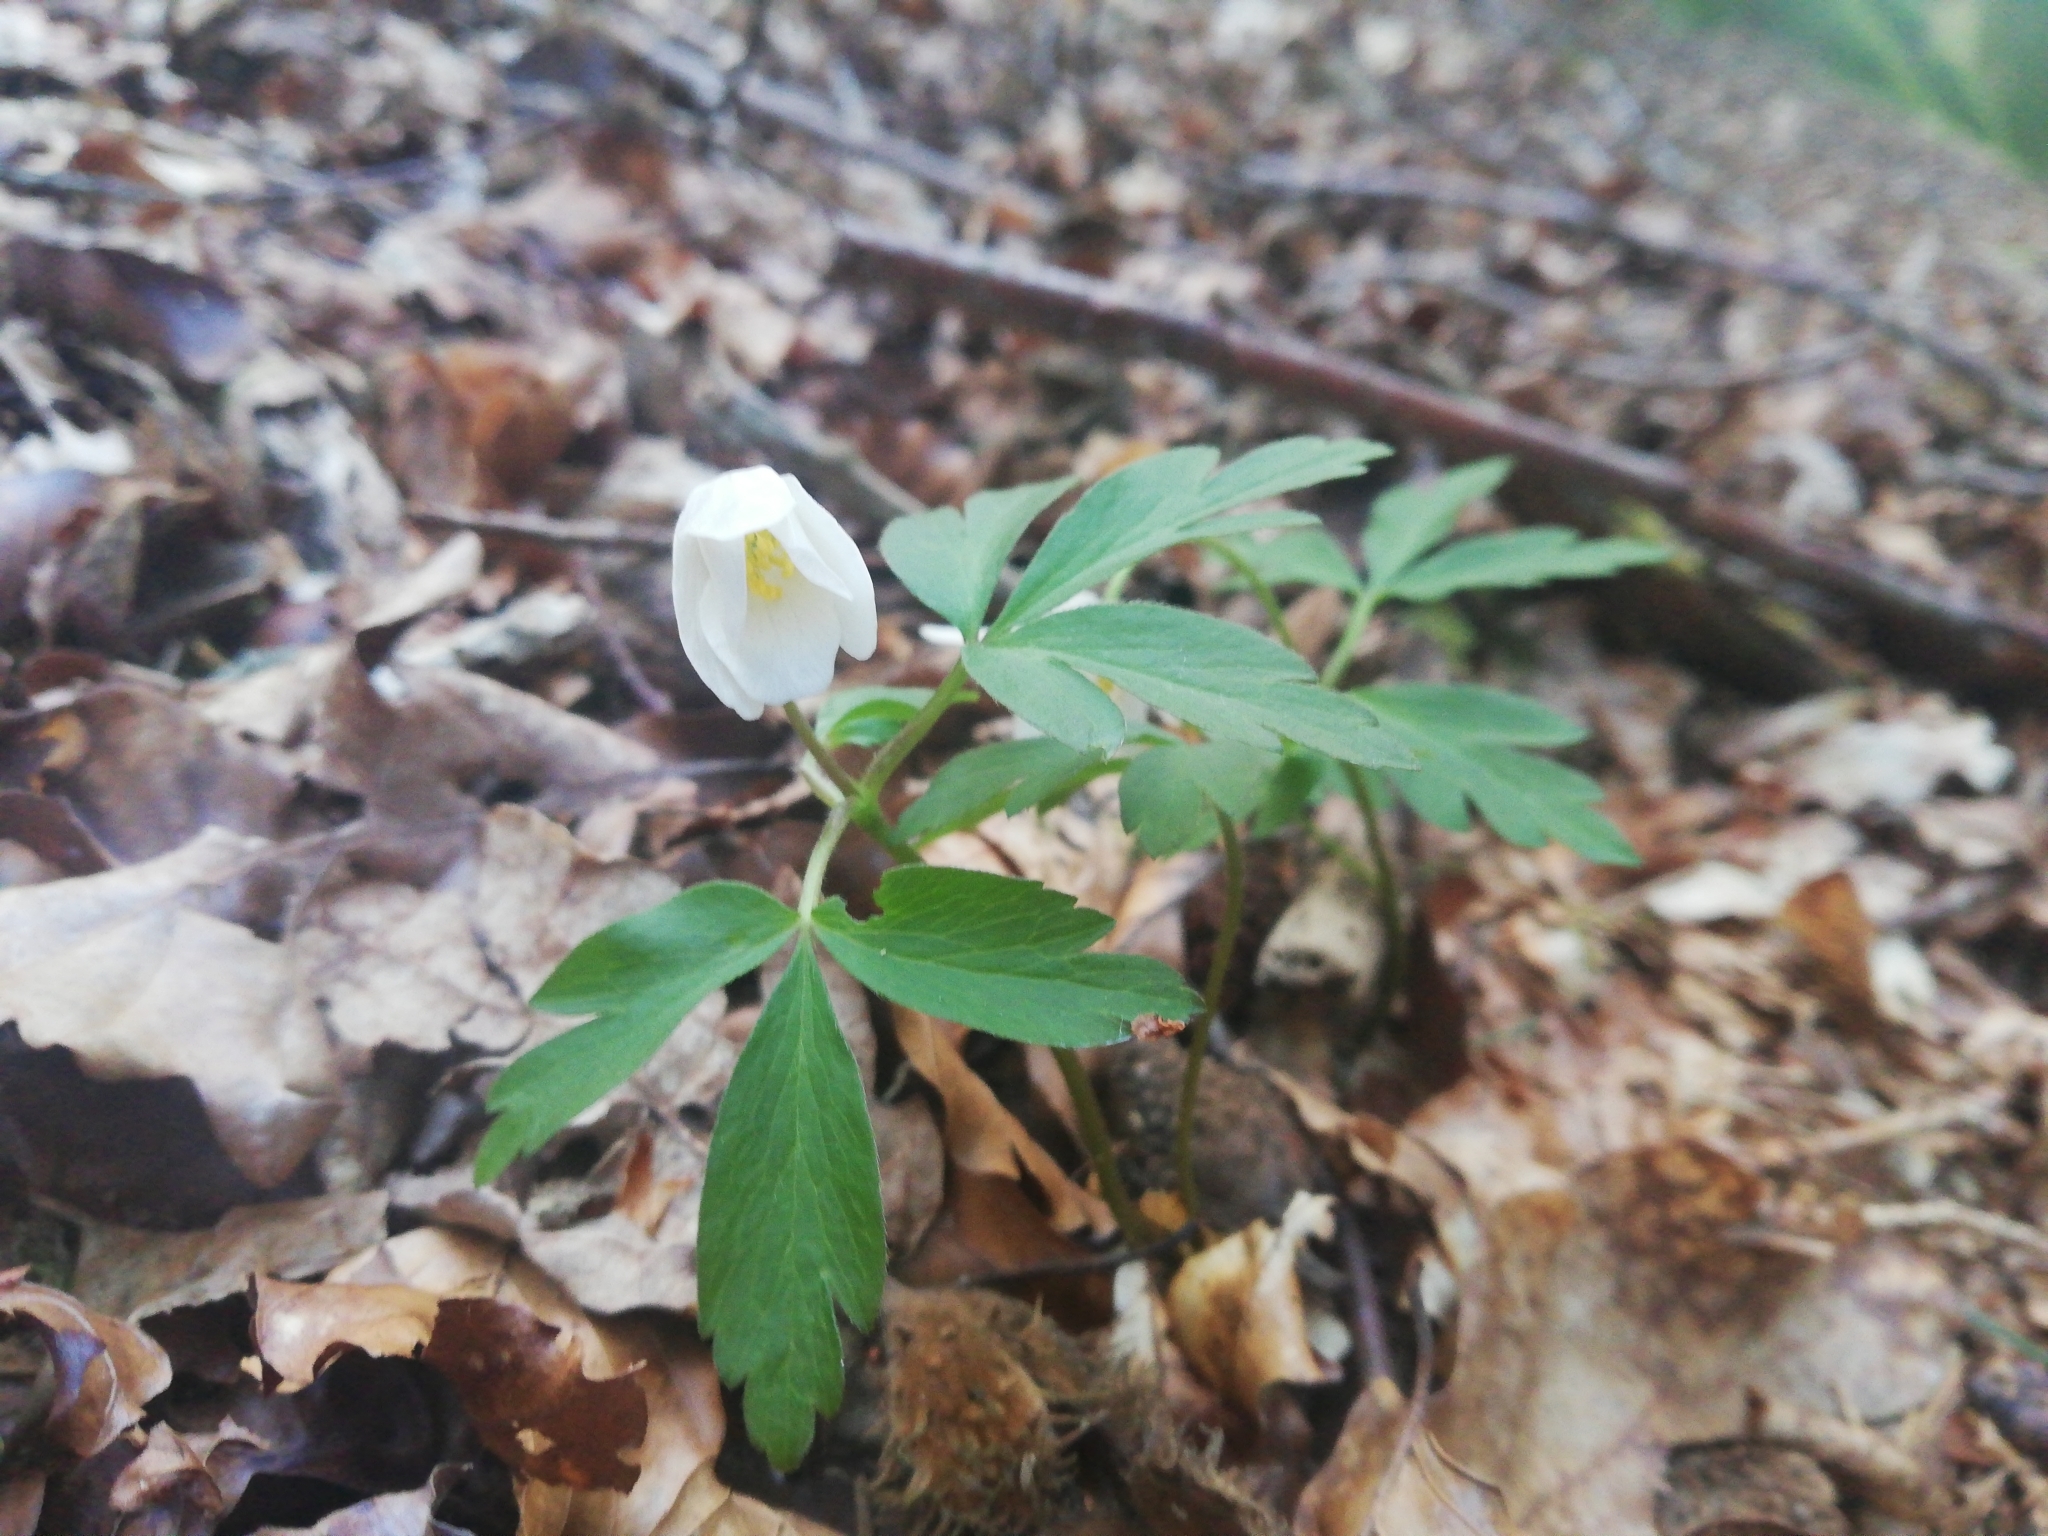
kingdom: Plantae
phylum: Tracheophyta
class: Magnoliopsida
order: Ranunculales
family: Ranunculaceae
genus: Anemone
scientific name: Anemone nemorosa
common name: Wood anemone
